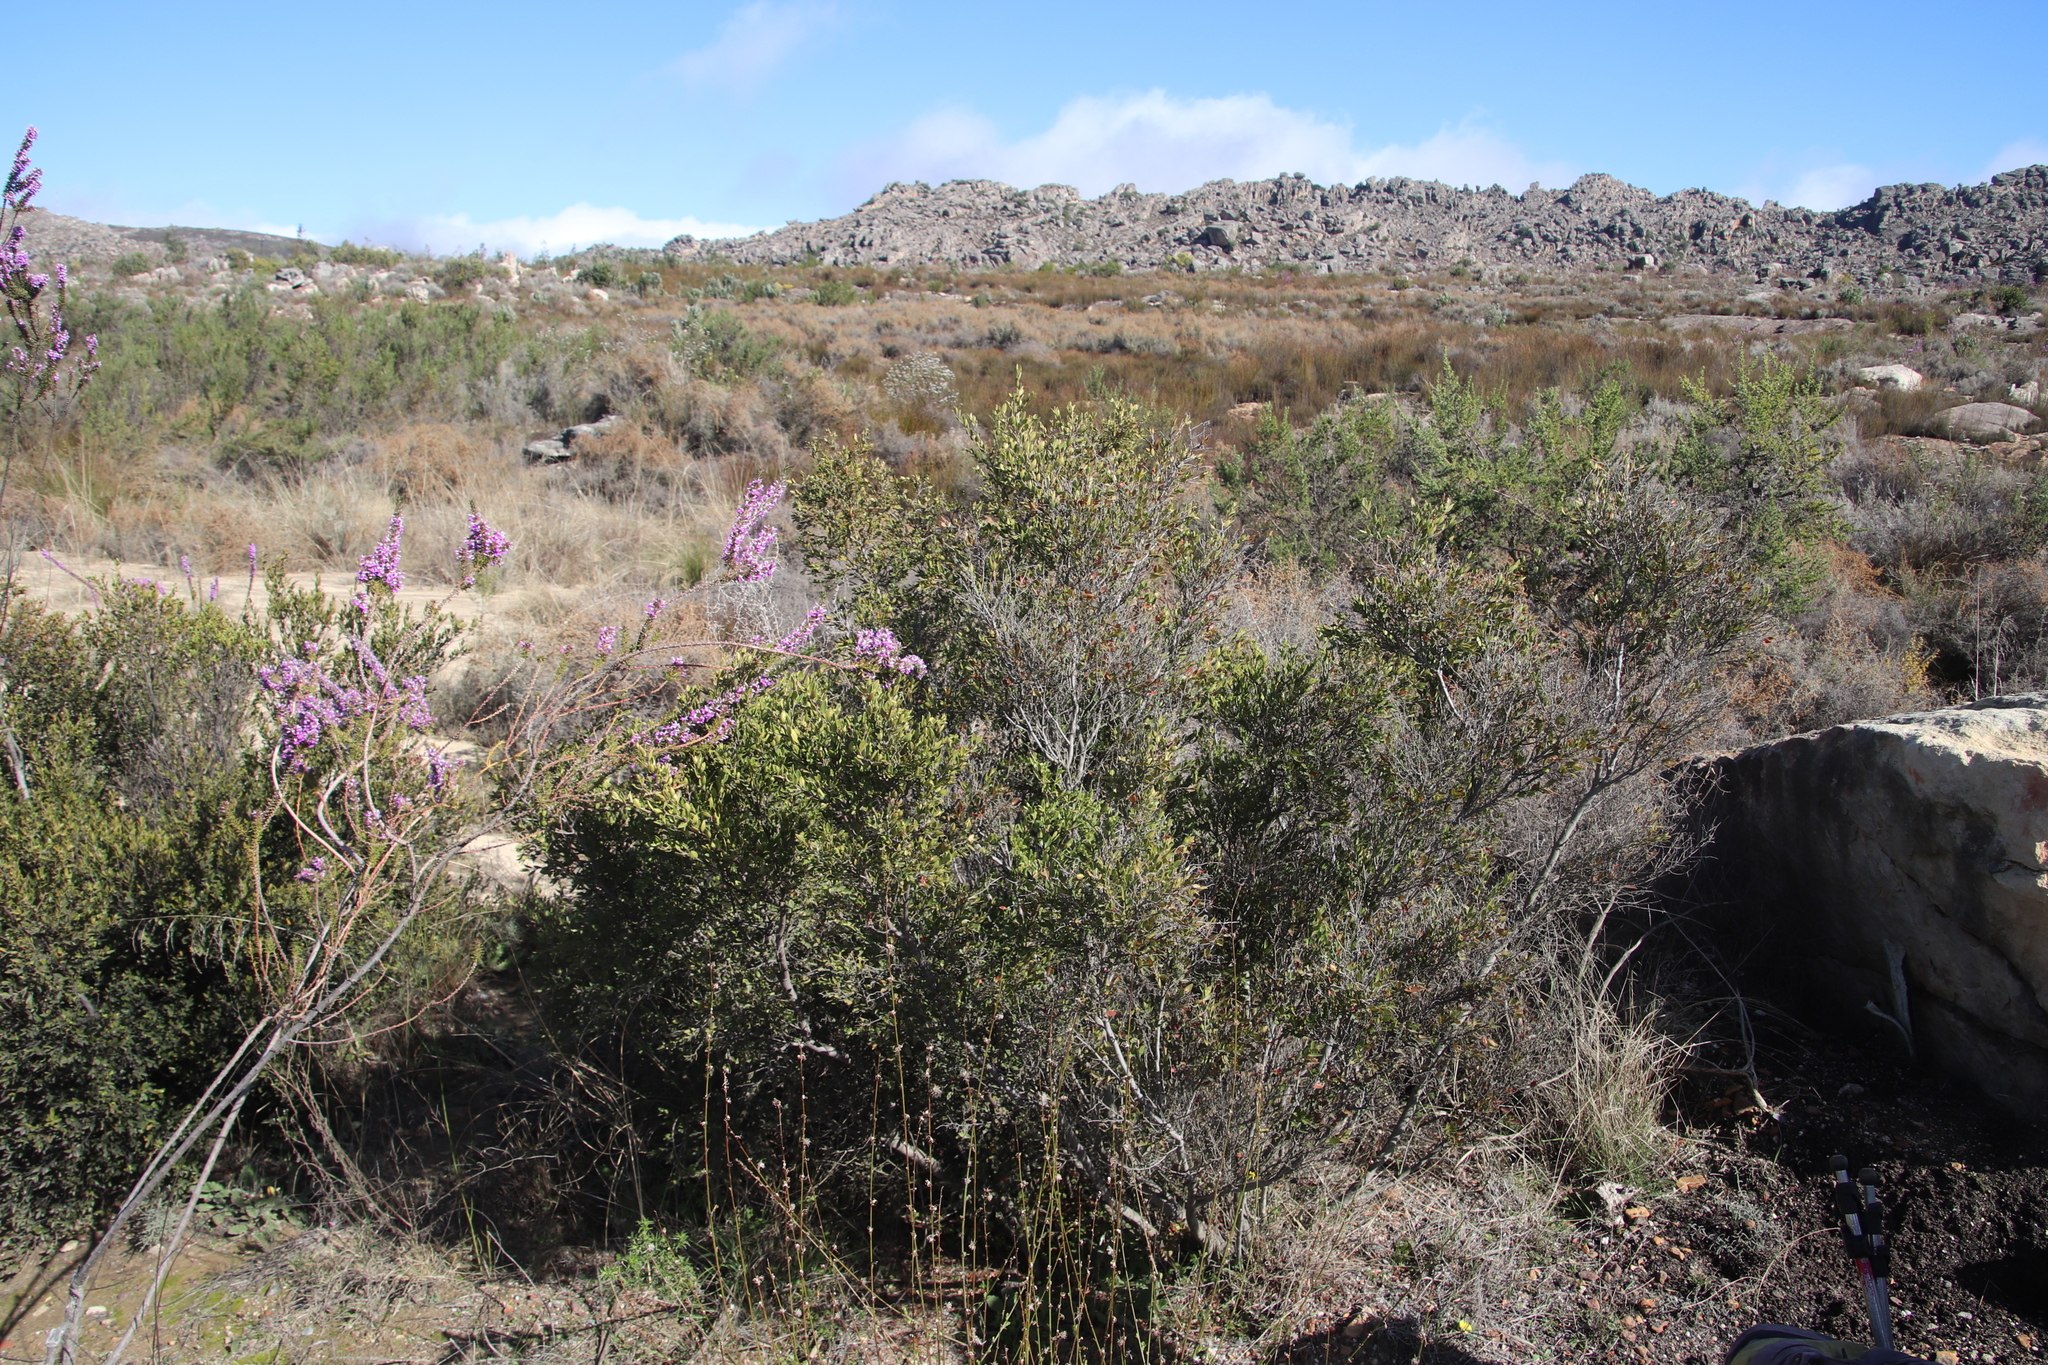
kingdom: Plantae
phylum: Tracheophyta
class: Magnoliopsida
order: Ericales
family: Ebenaceae
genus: Diospyros
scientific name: Diospyros glabra
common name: Fynbos star apple
